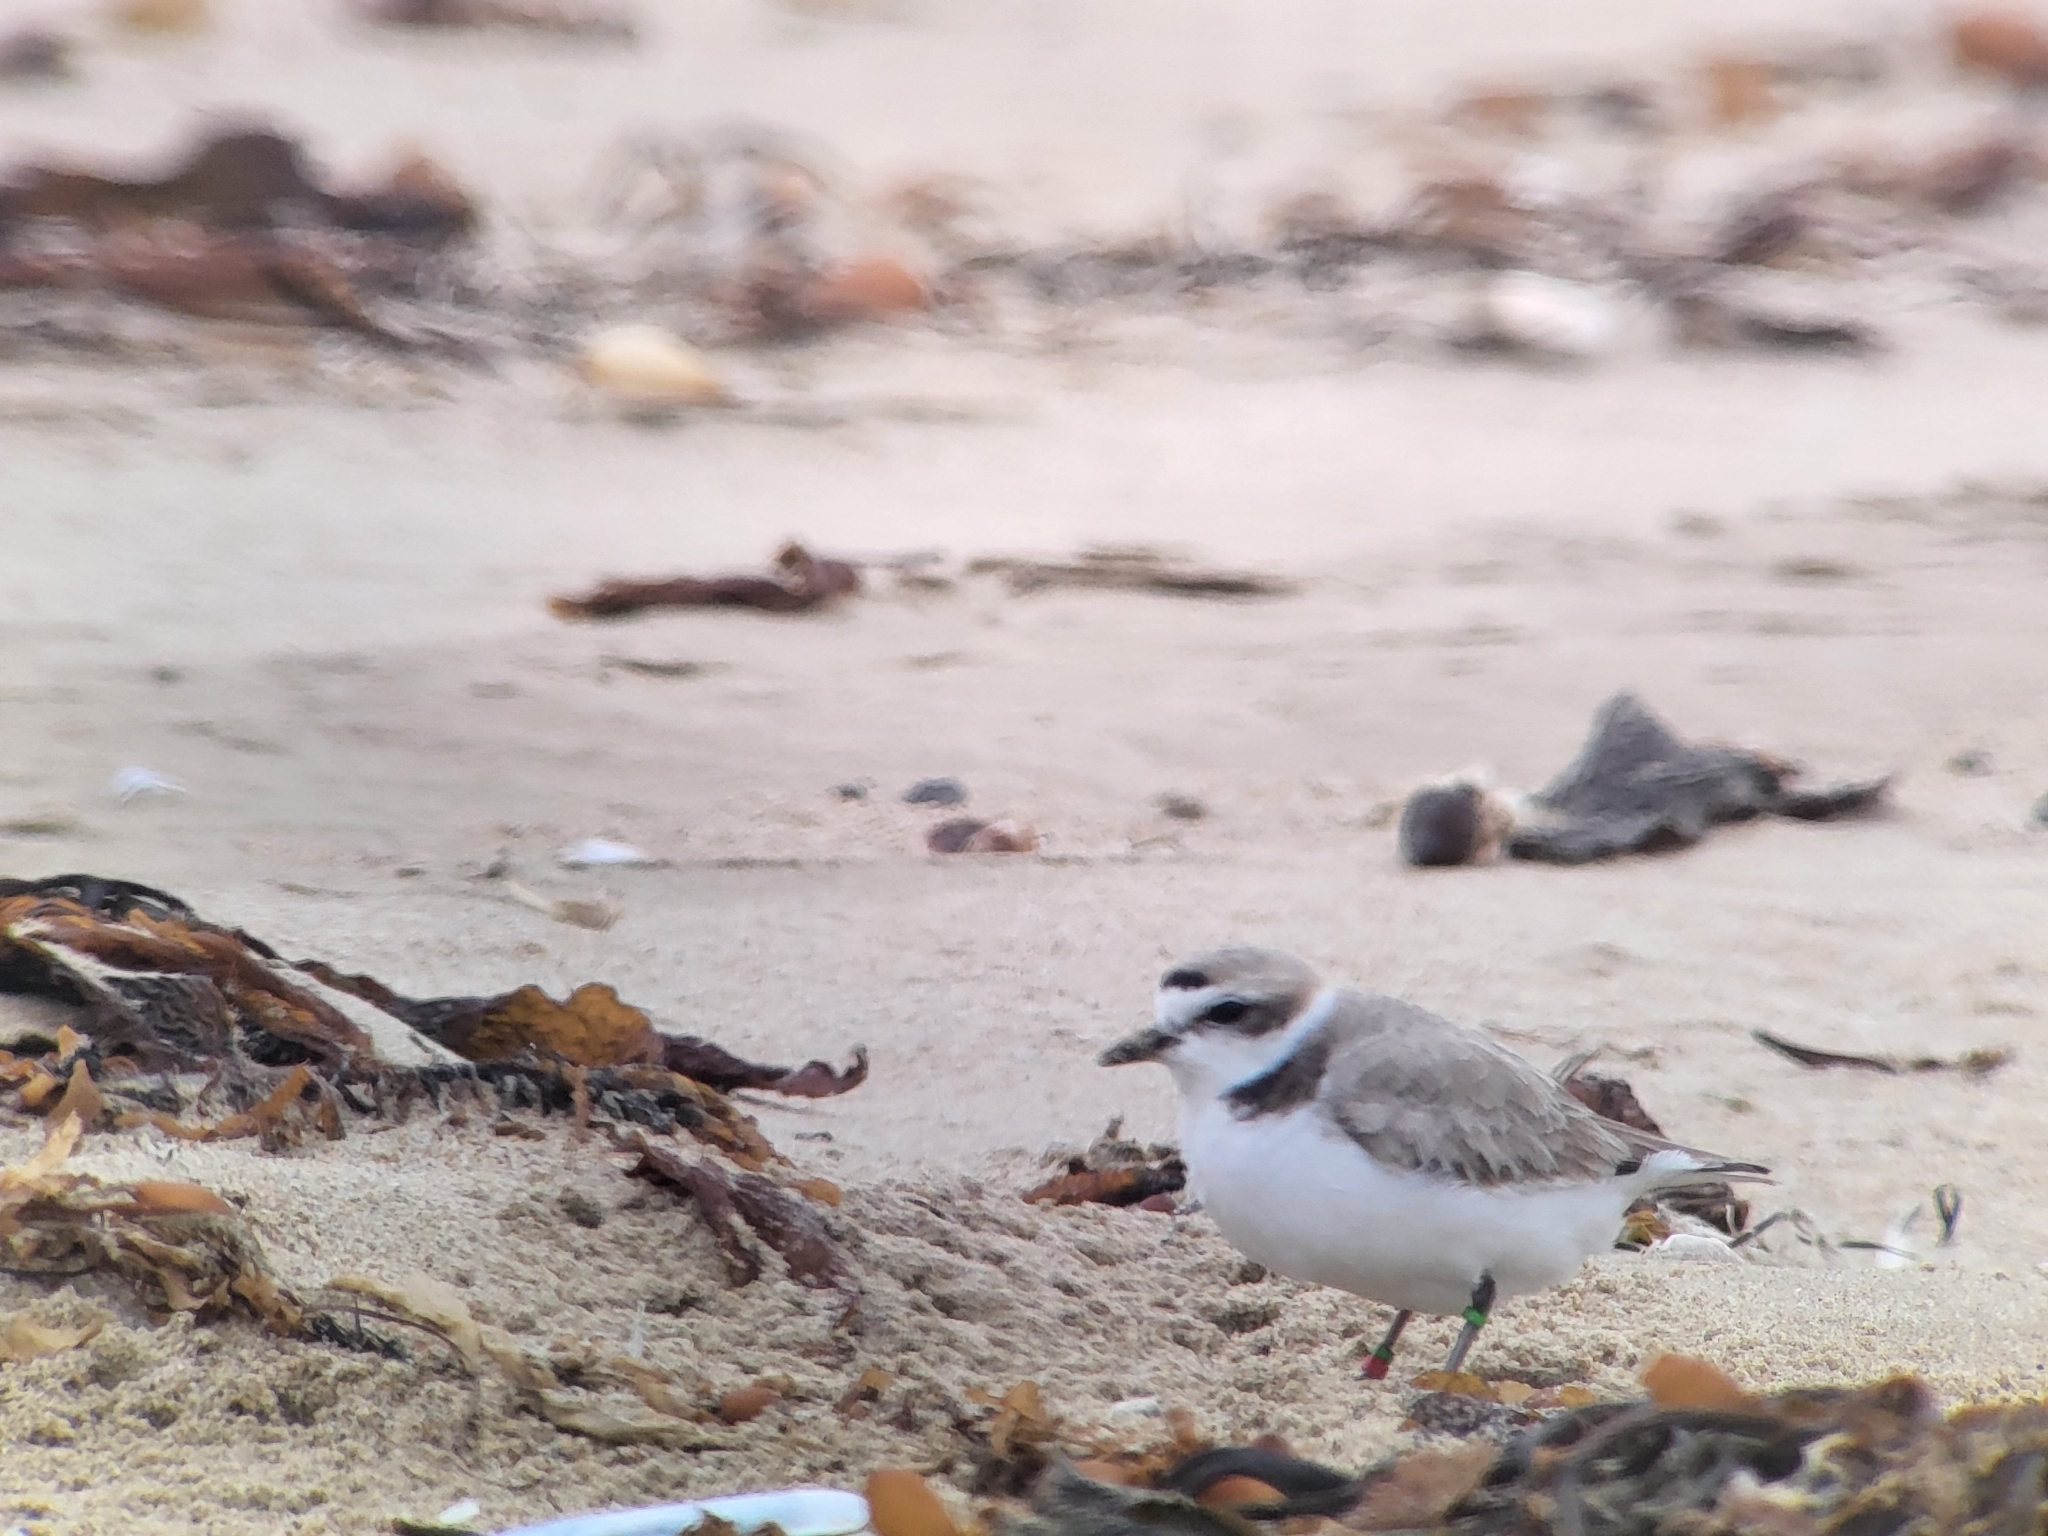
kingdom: Animalia
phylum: Chordata
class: Aves
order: Charadriiformes
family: Charadriidae
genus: Anarhynchus
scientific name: Anarhynchus
